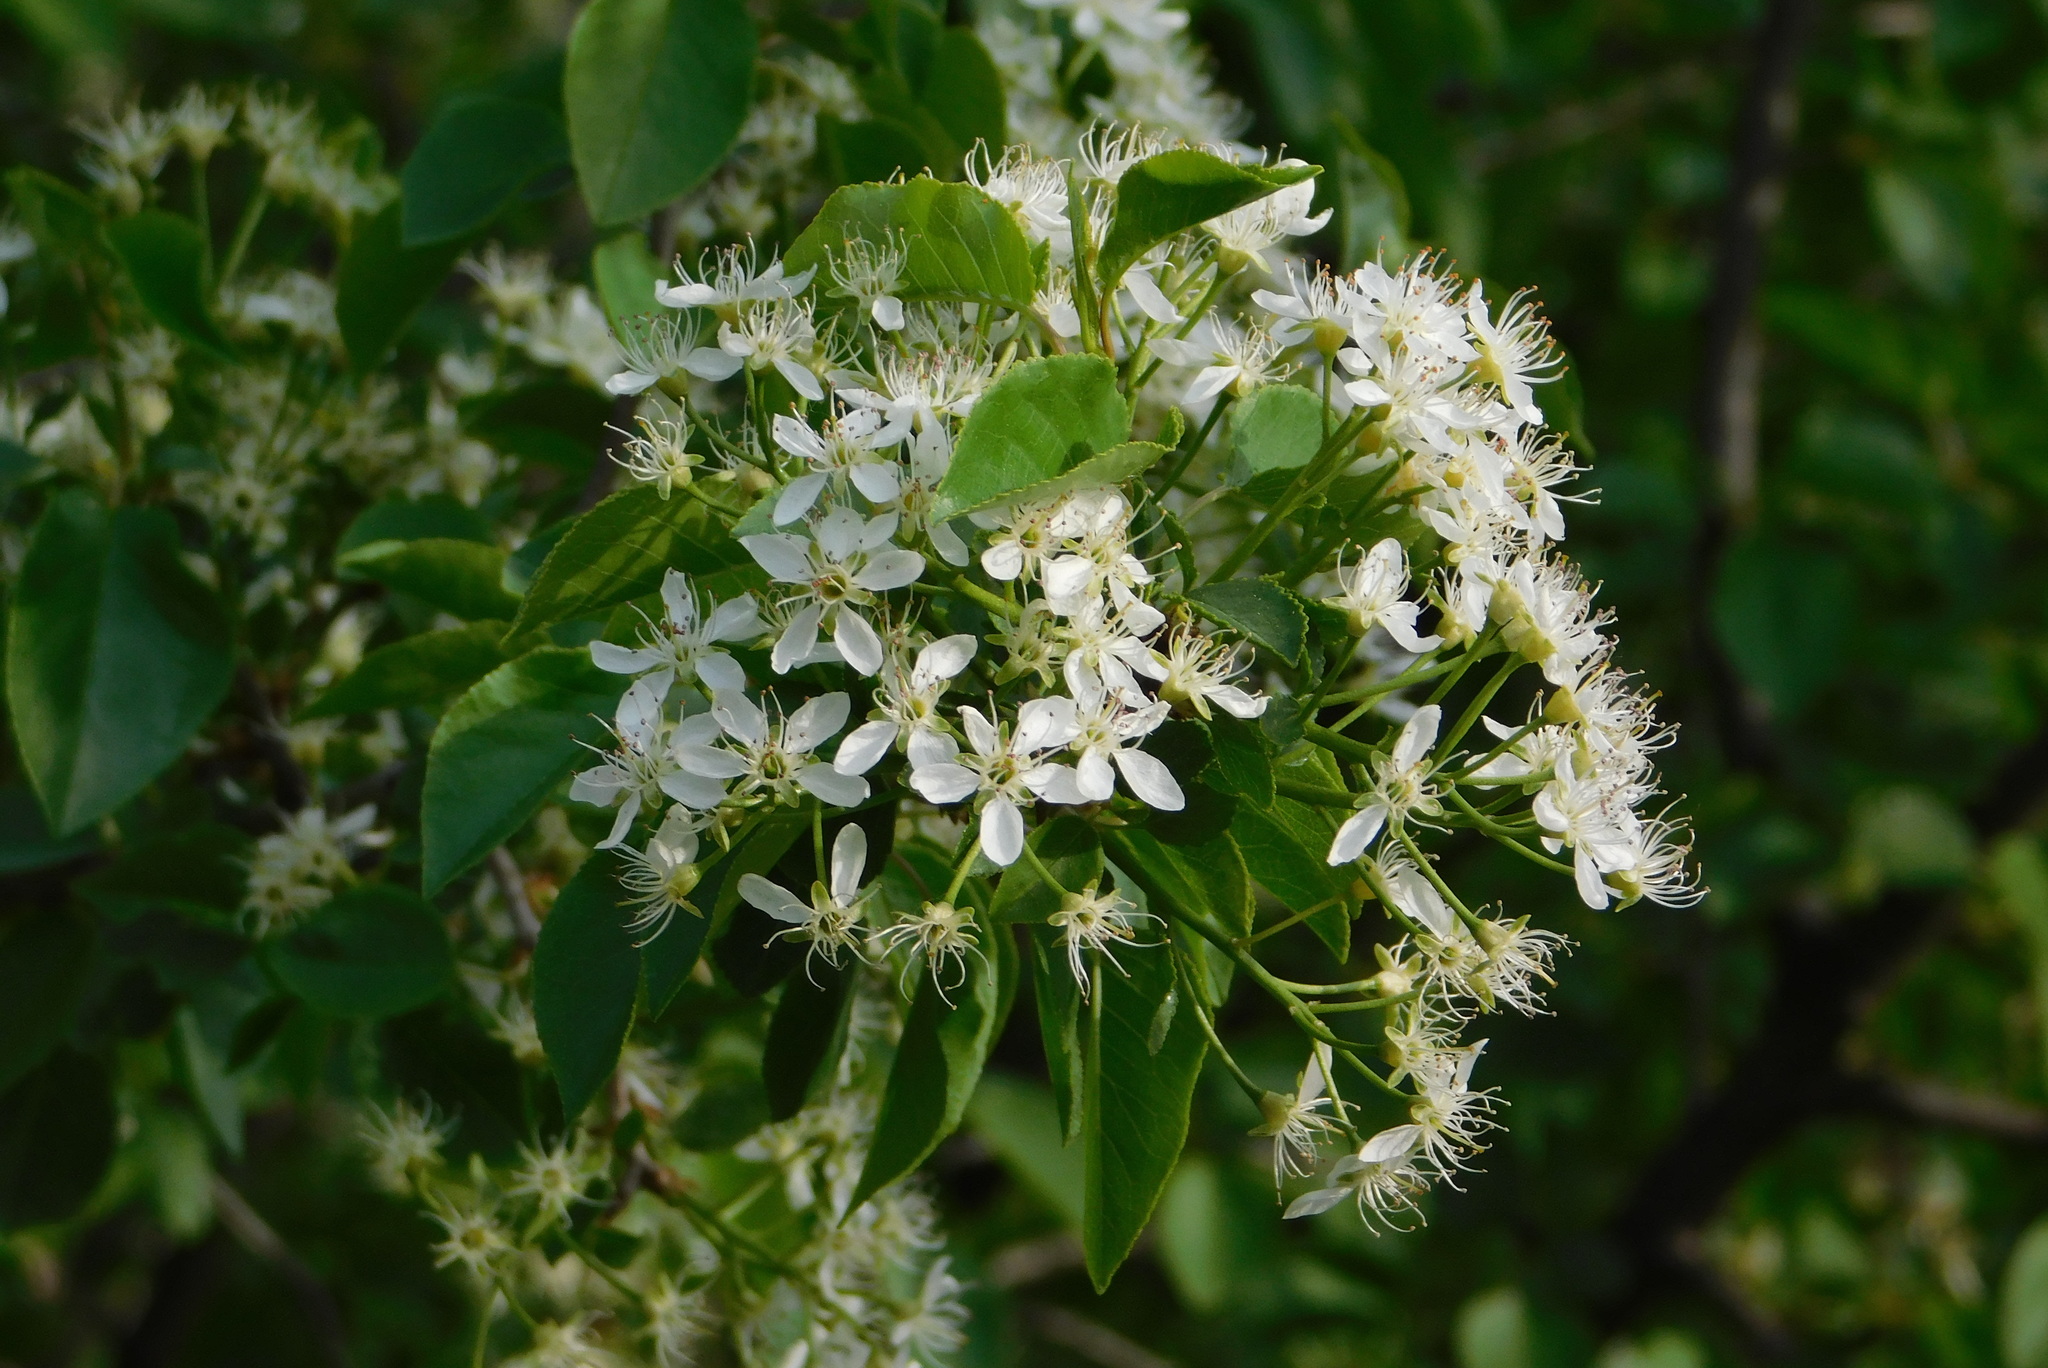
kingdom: Plantae
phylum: Tracheophyta
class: Magnoliopsida
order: Rosales
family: Rosaceae
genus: Prunus
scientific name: Prunus mahaleb
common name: Mahaleb cherry
